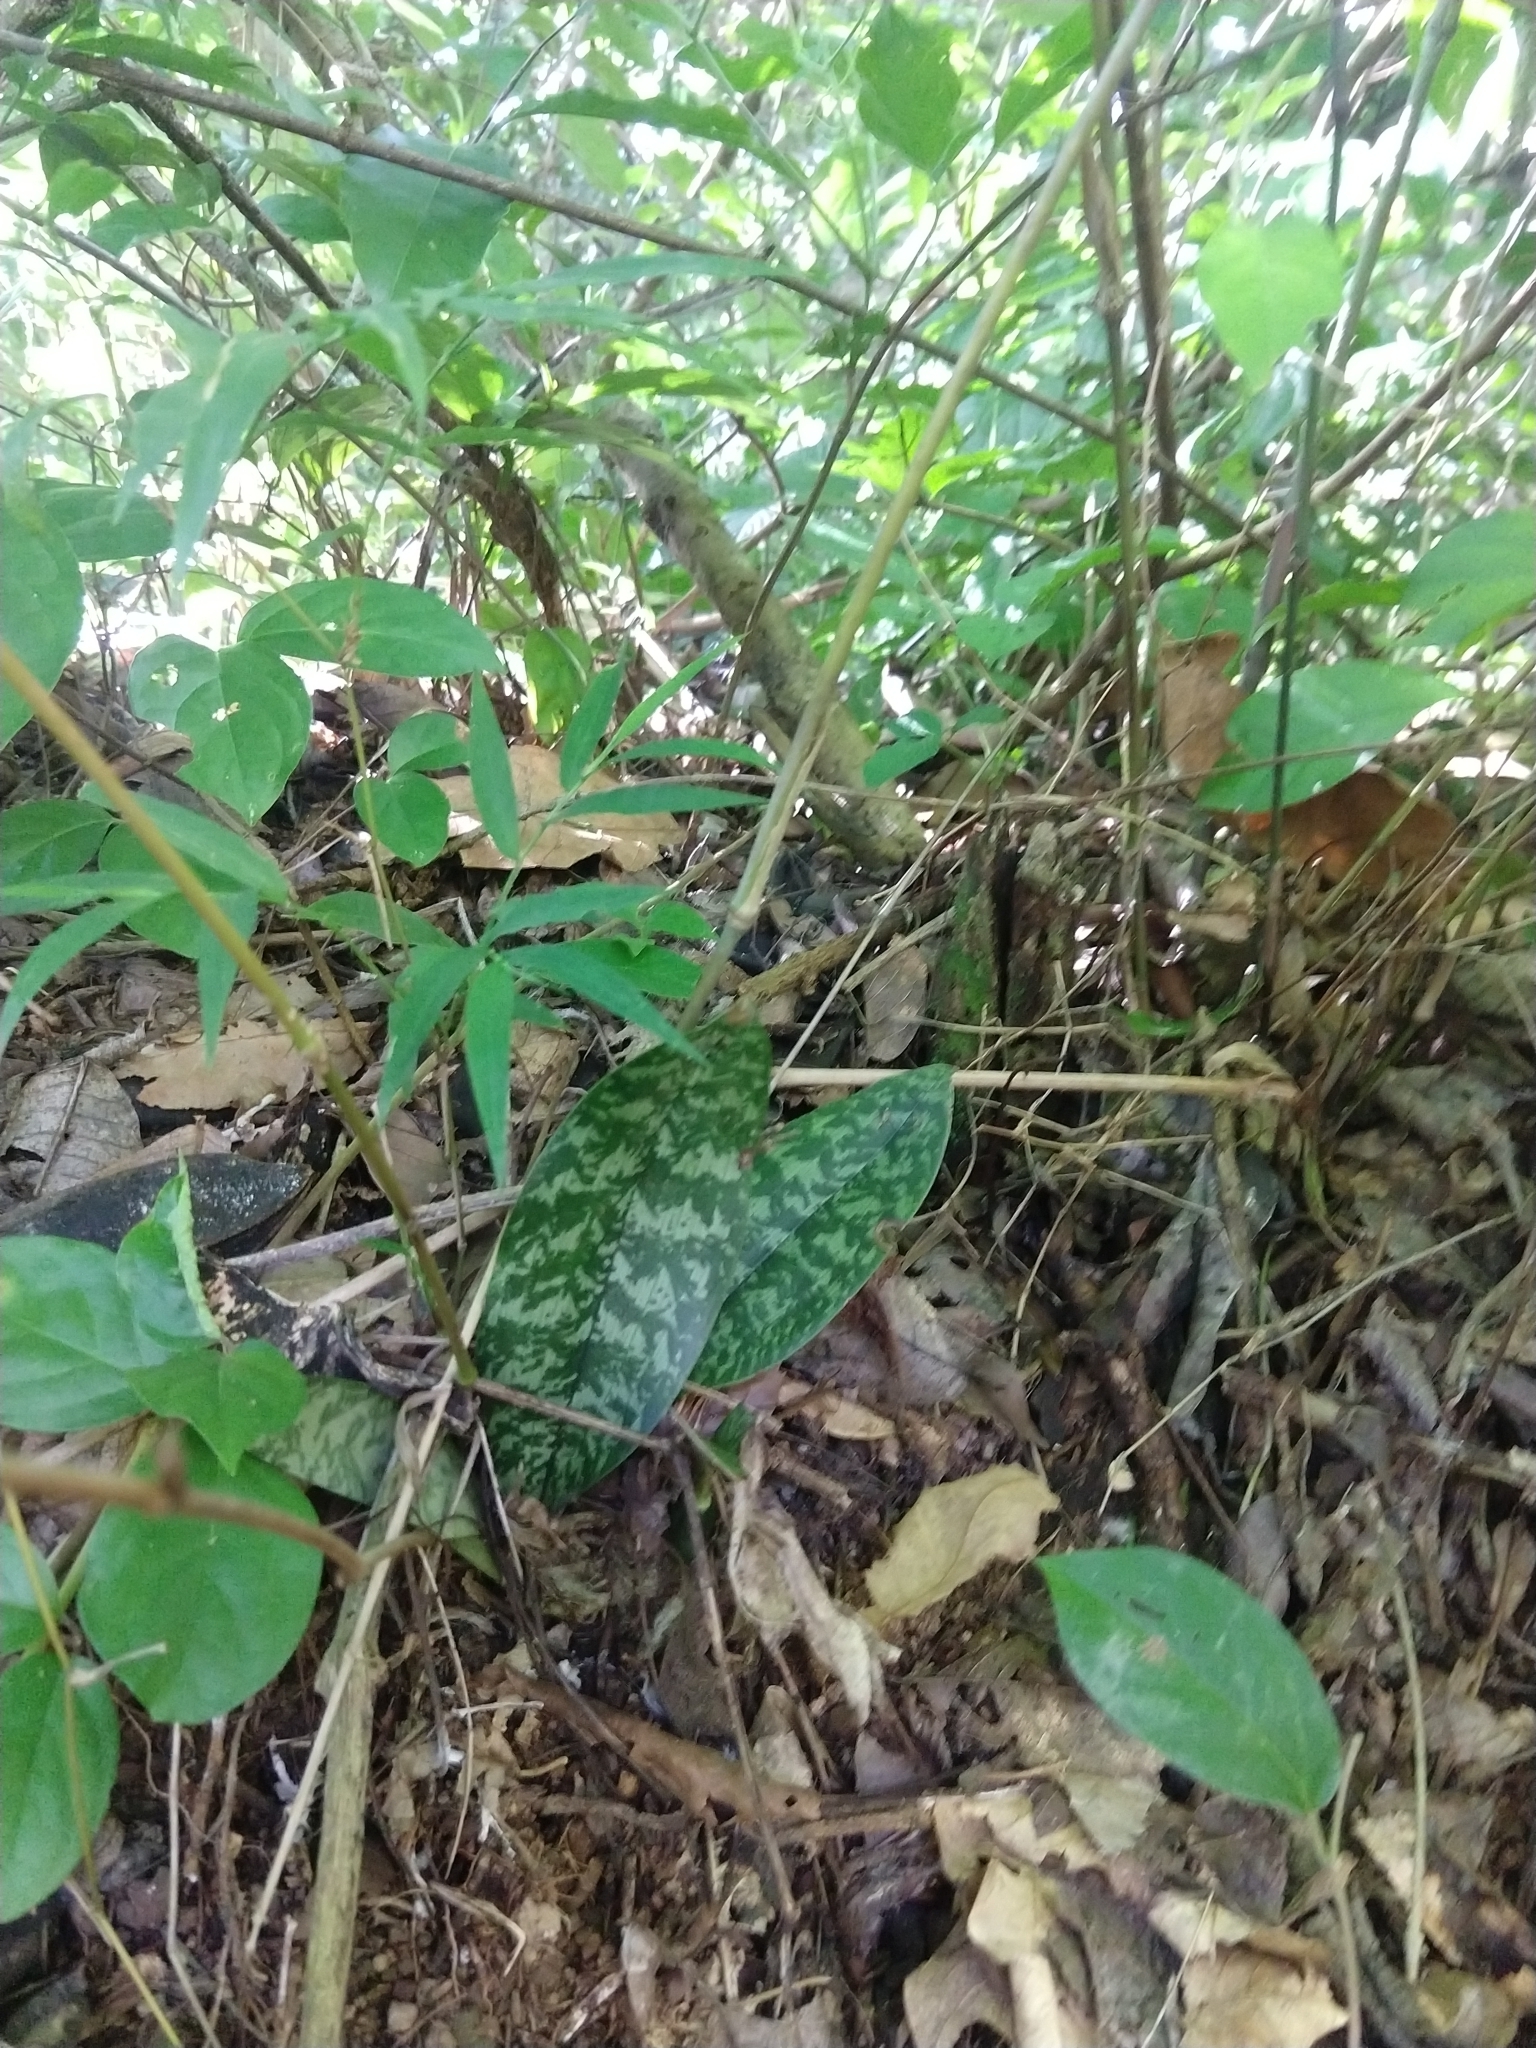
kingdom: Plantae
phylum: Tracheophyta
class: Liliopsida
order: Asparagales
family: Orchidaceae
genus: Eulophia
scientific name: Eulophia maculata
